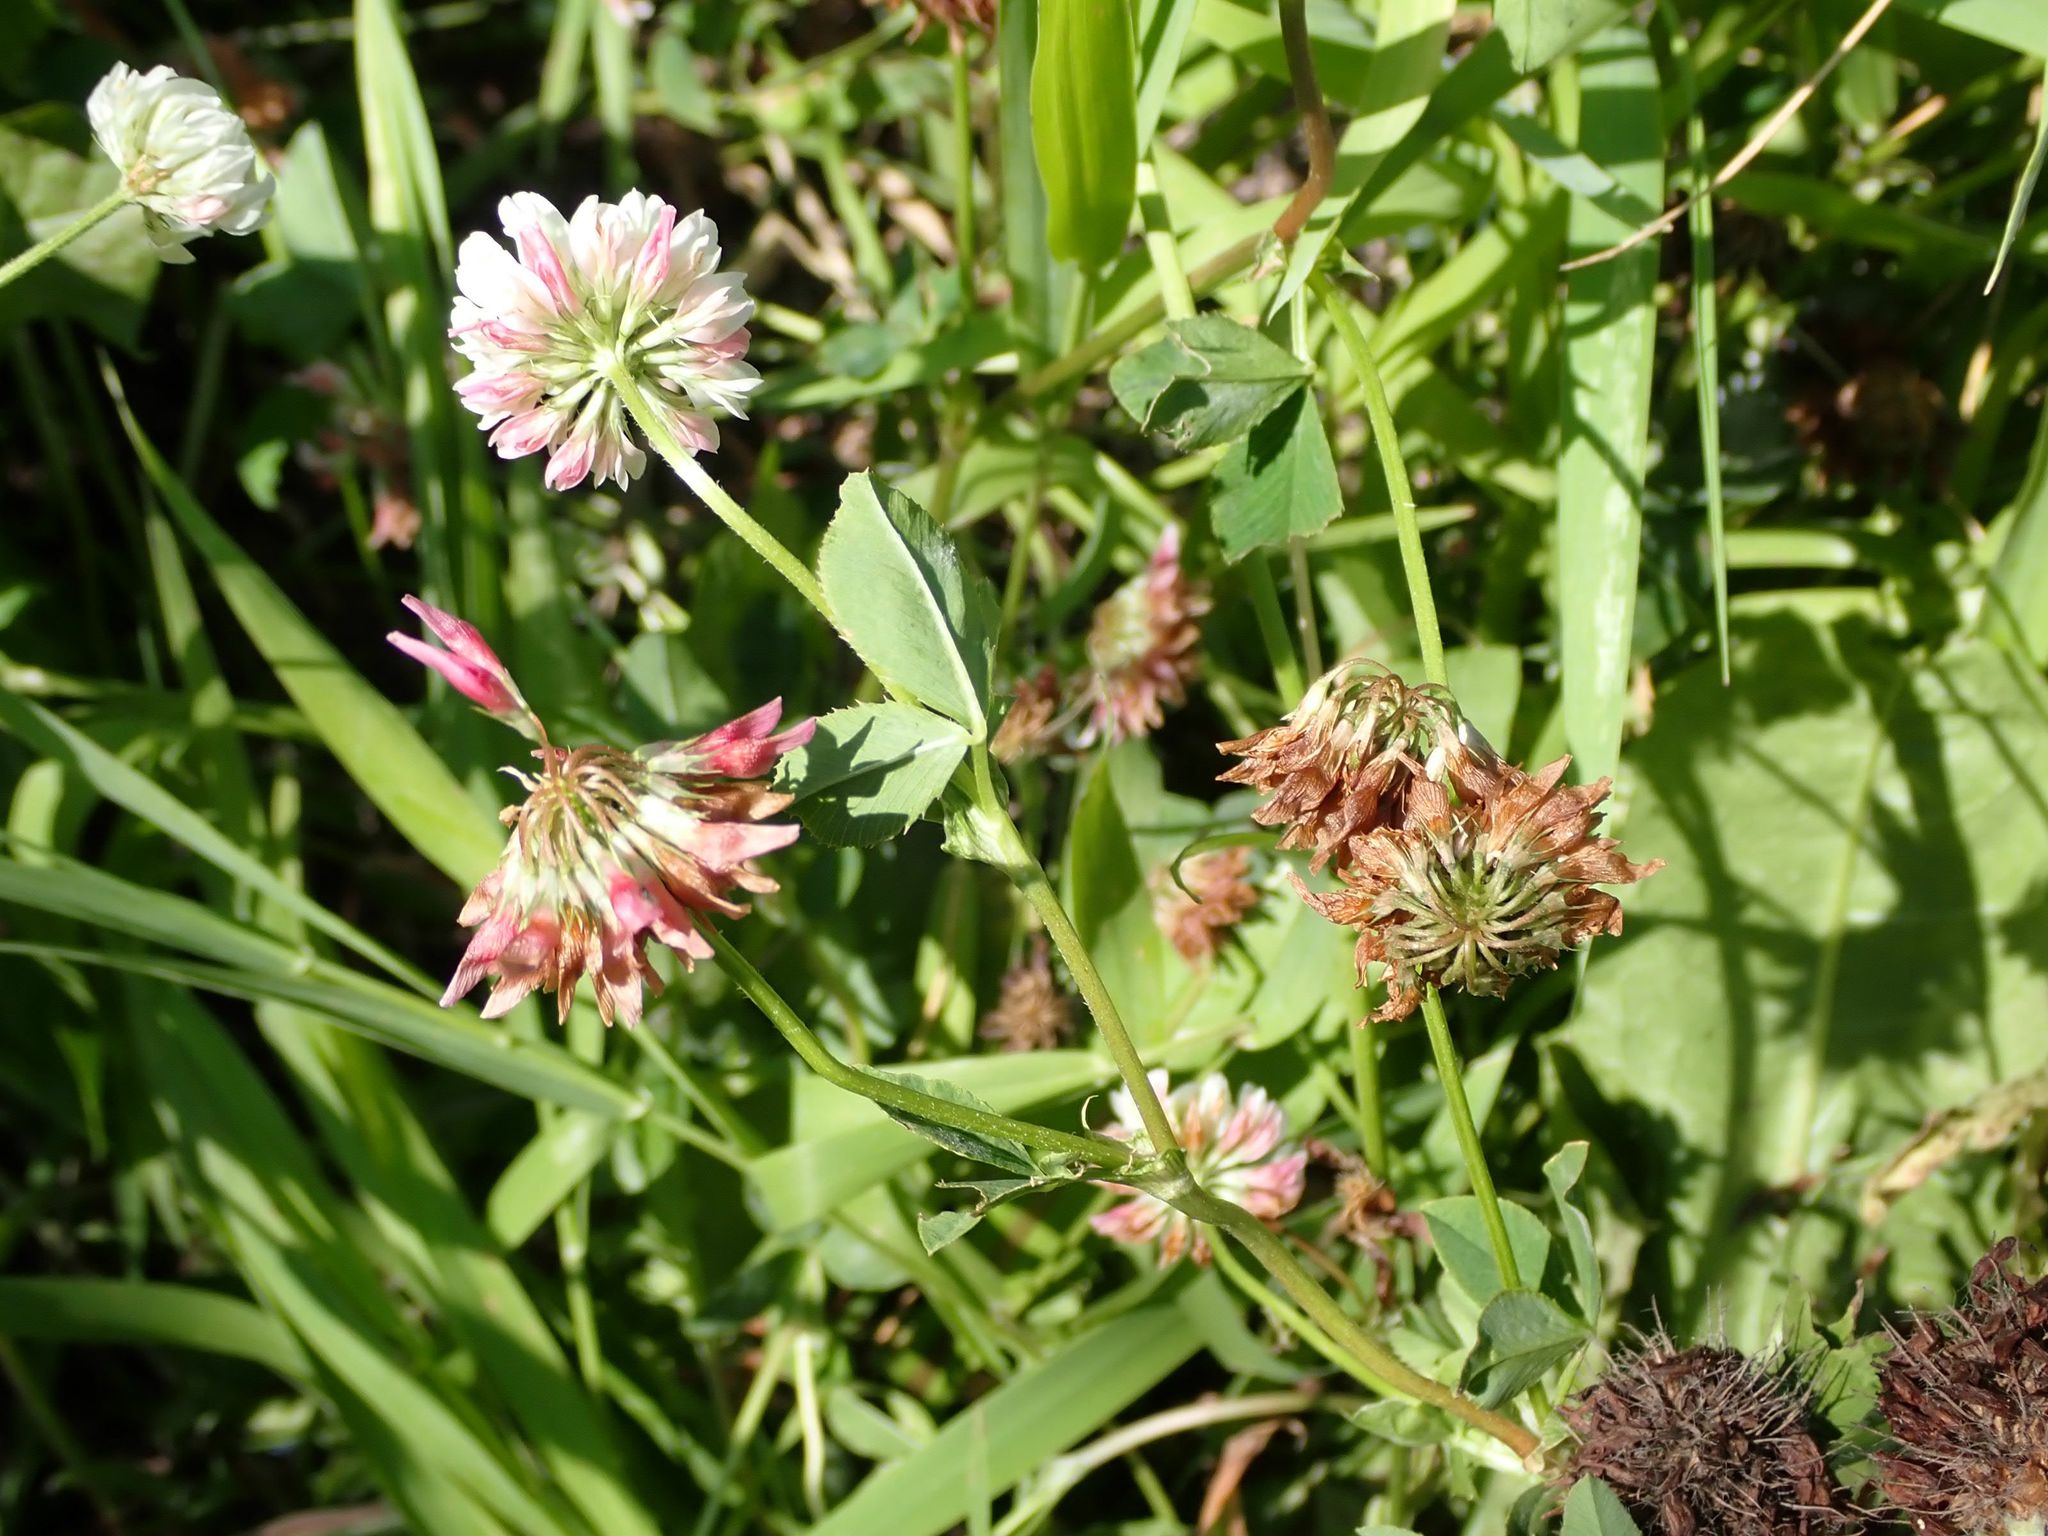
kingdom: Plantae
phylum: Tracheophyta
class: Magnoliopsida
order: Fabales
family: Fabaceae
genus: Trifolium
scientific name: Trifolium hybridum
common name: Alsike clover
